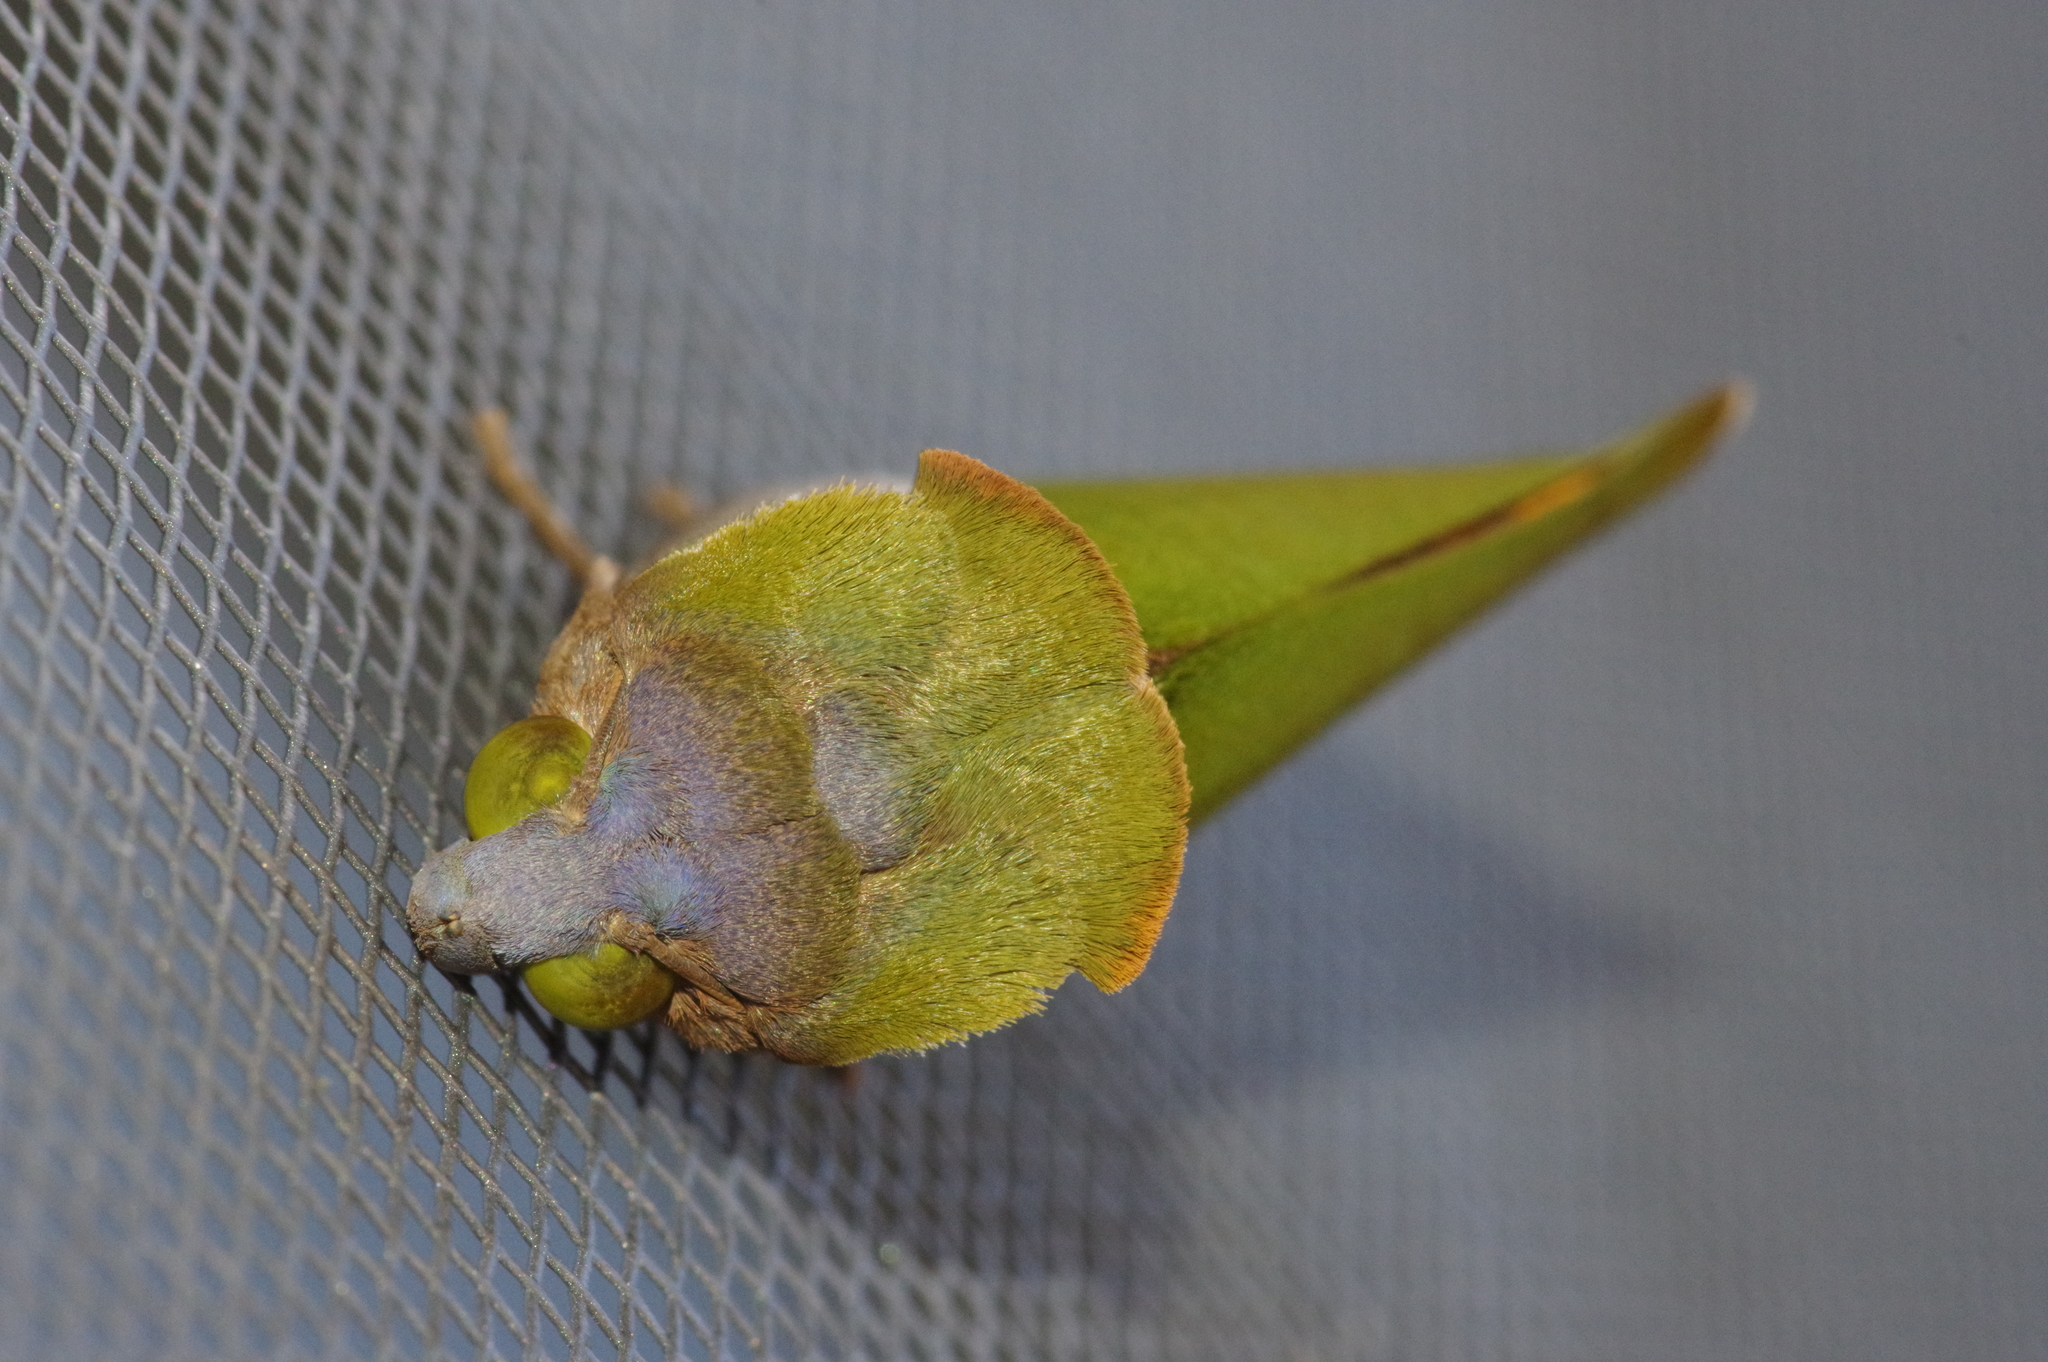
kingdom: Animalia
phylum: Arthropoda
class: Insecta
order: Lepidoptera
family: Erebidae
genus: Eudocima
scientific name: Eudocima salaminia
